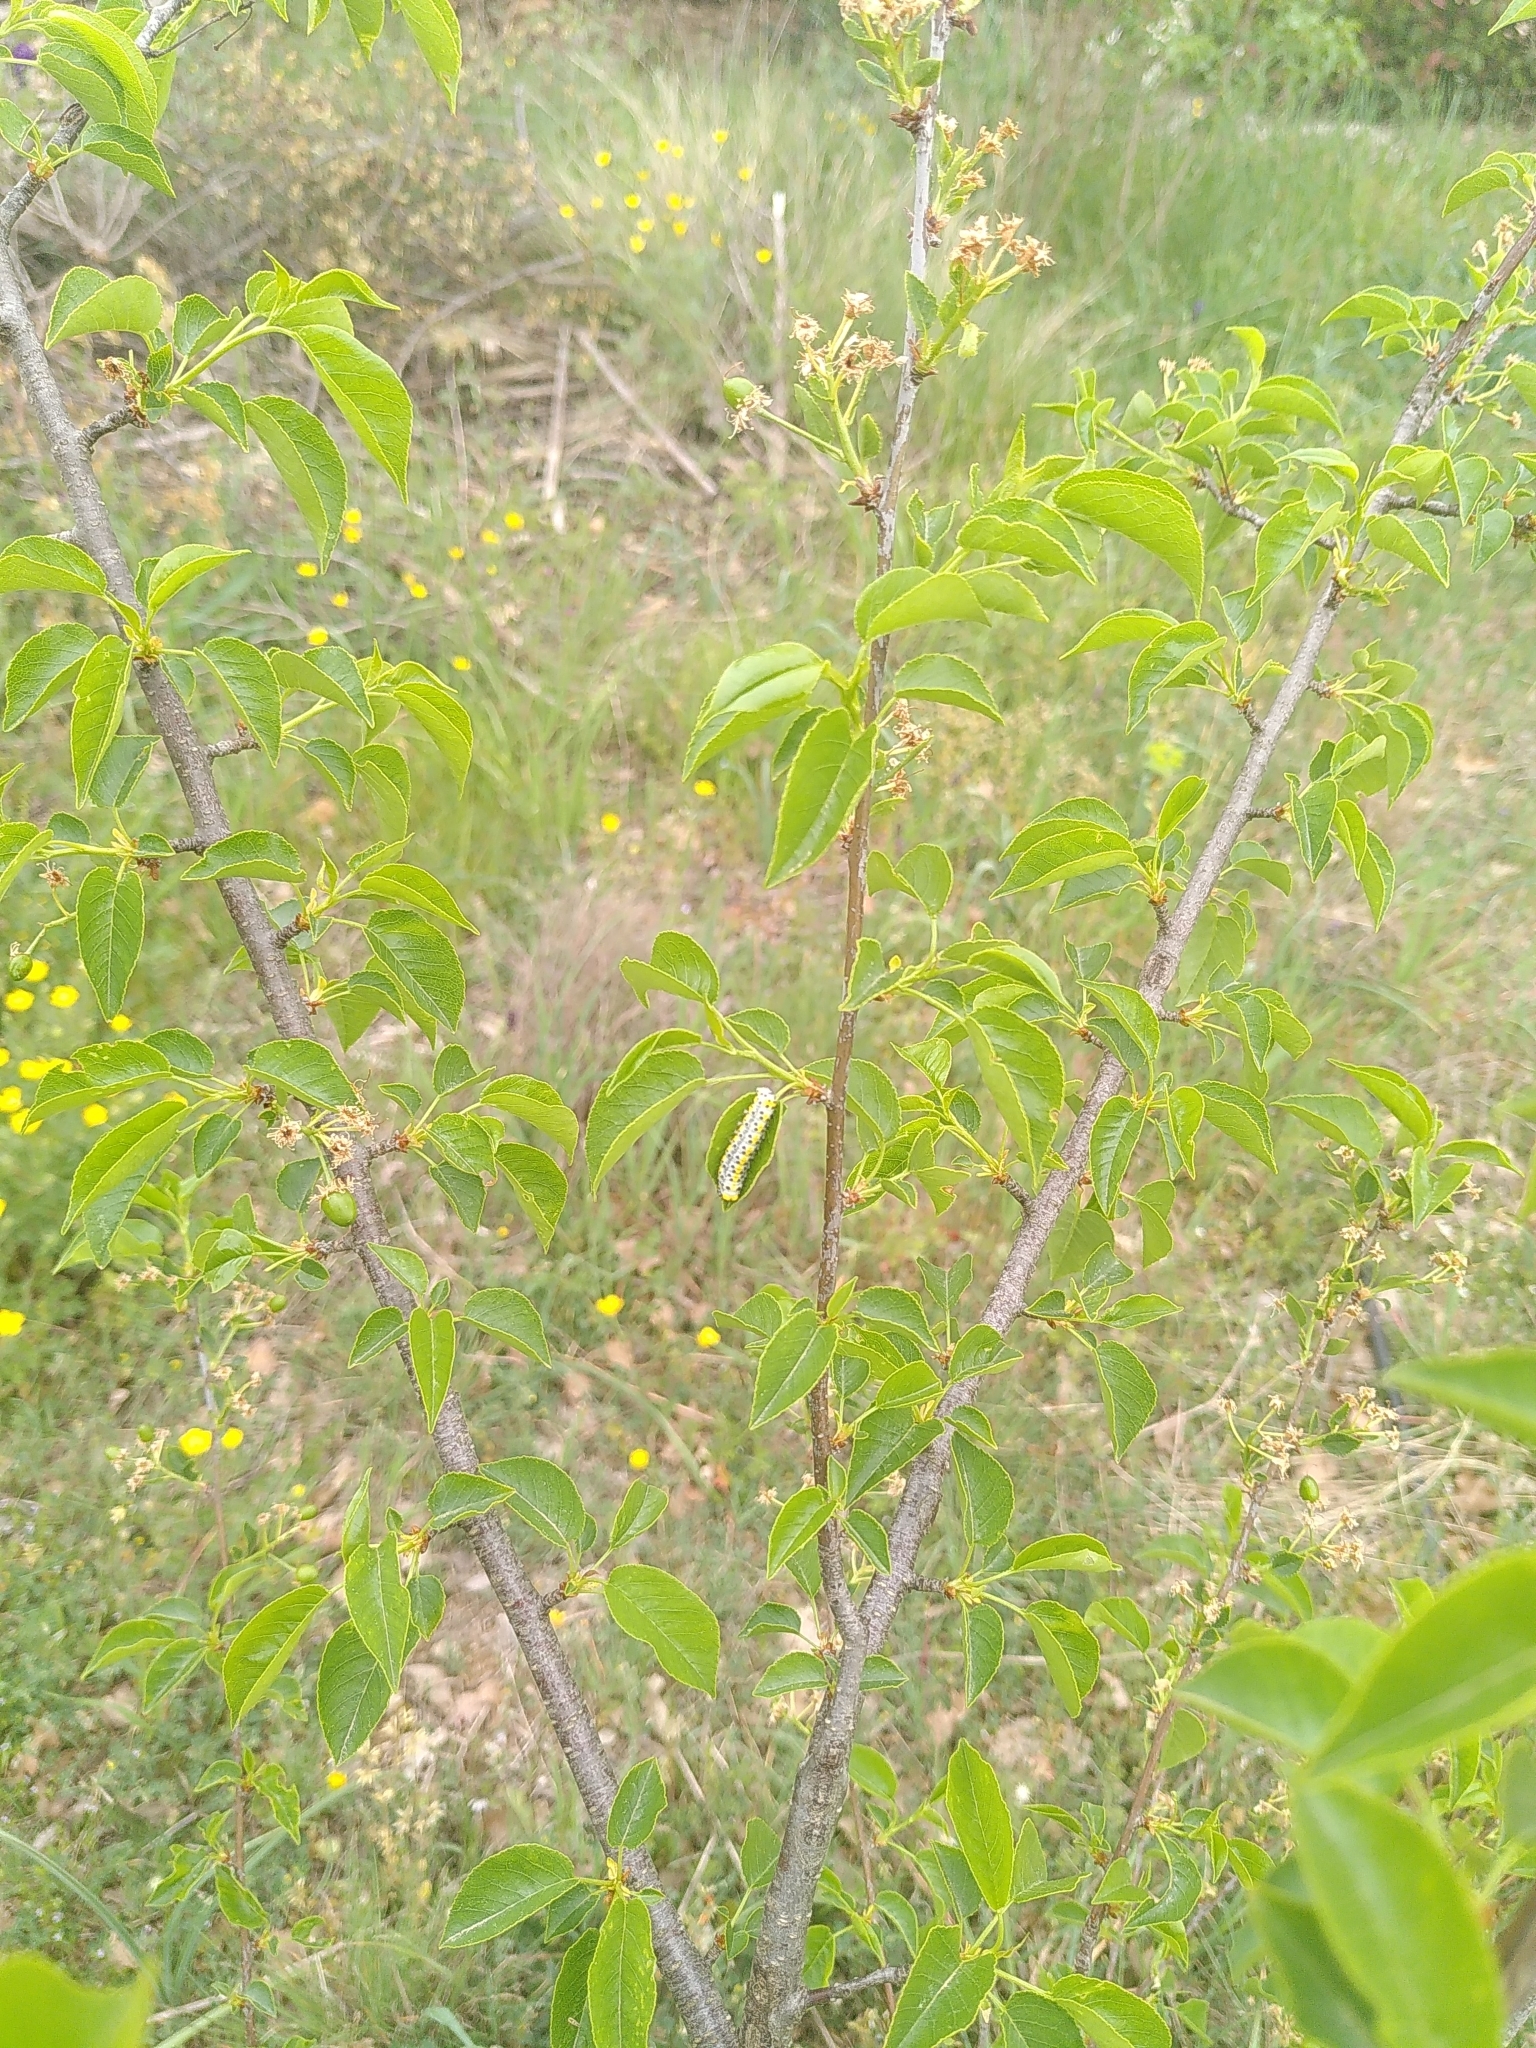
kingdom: Animalia
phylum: Arthropoda
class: Insecta
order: Lepidoptera
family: Noctuidae
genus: Diloba
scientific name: Diloba caeruleocephala
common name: Figure of eight
